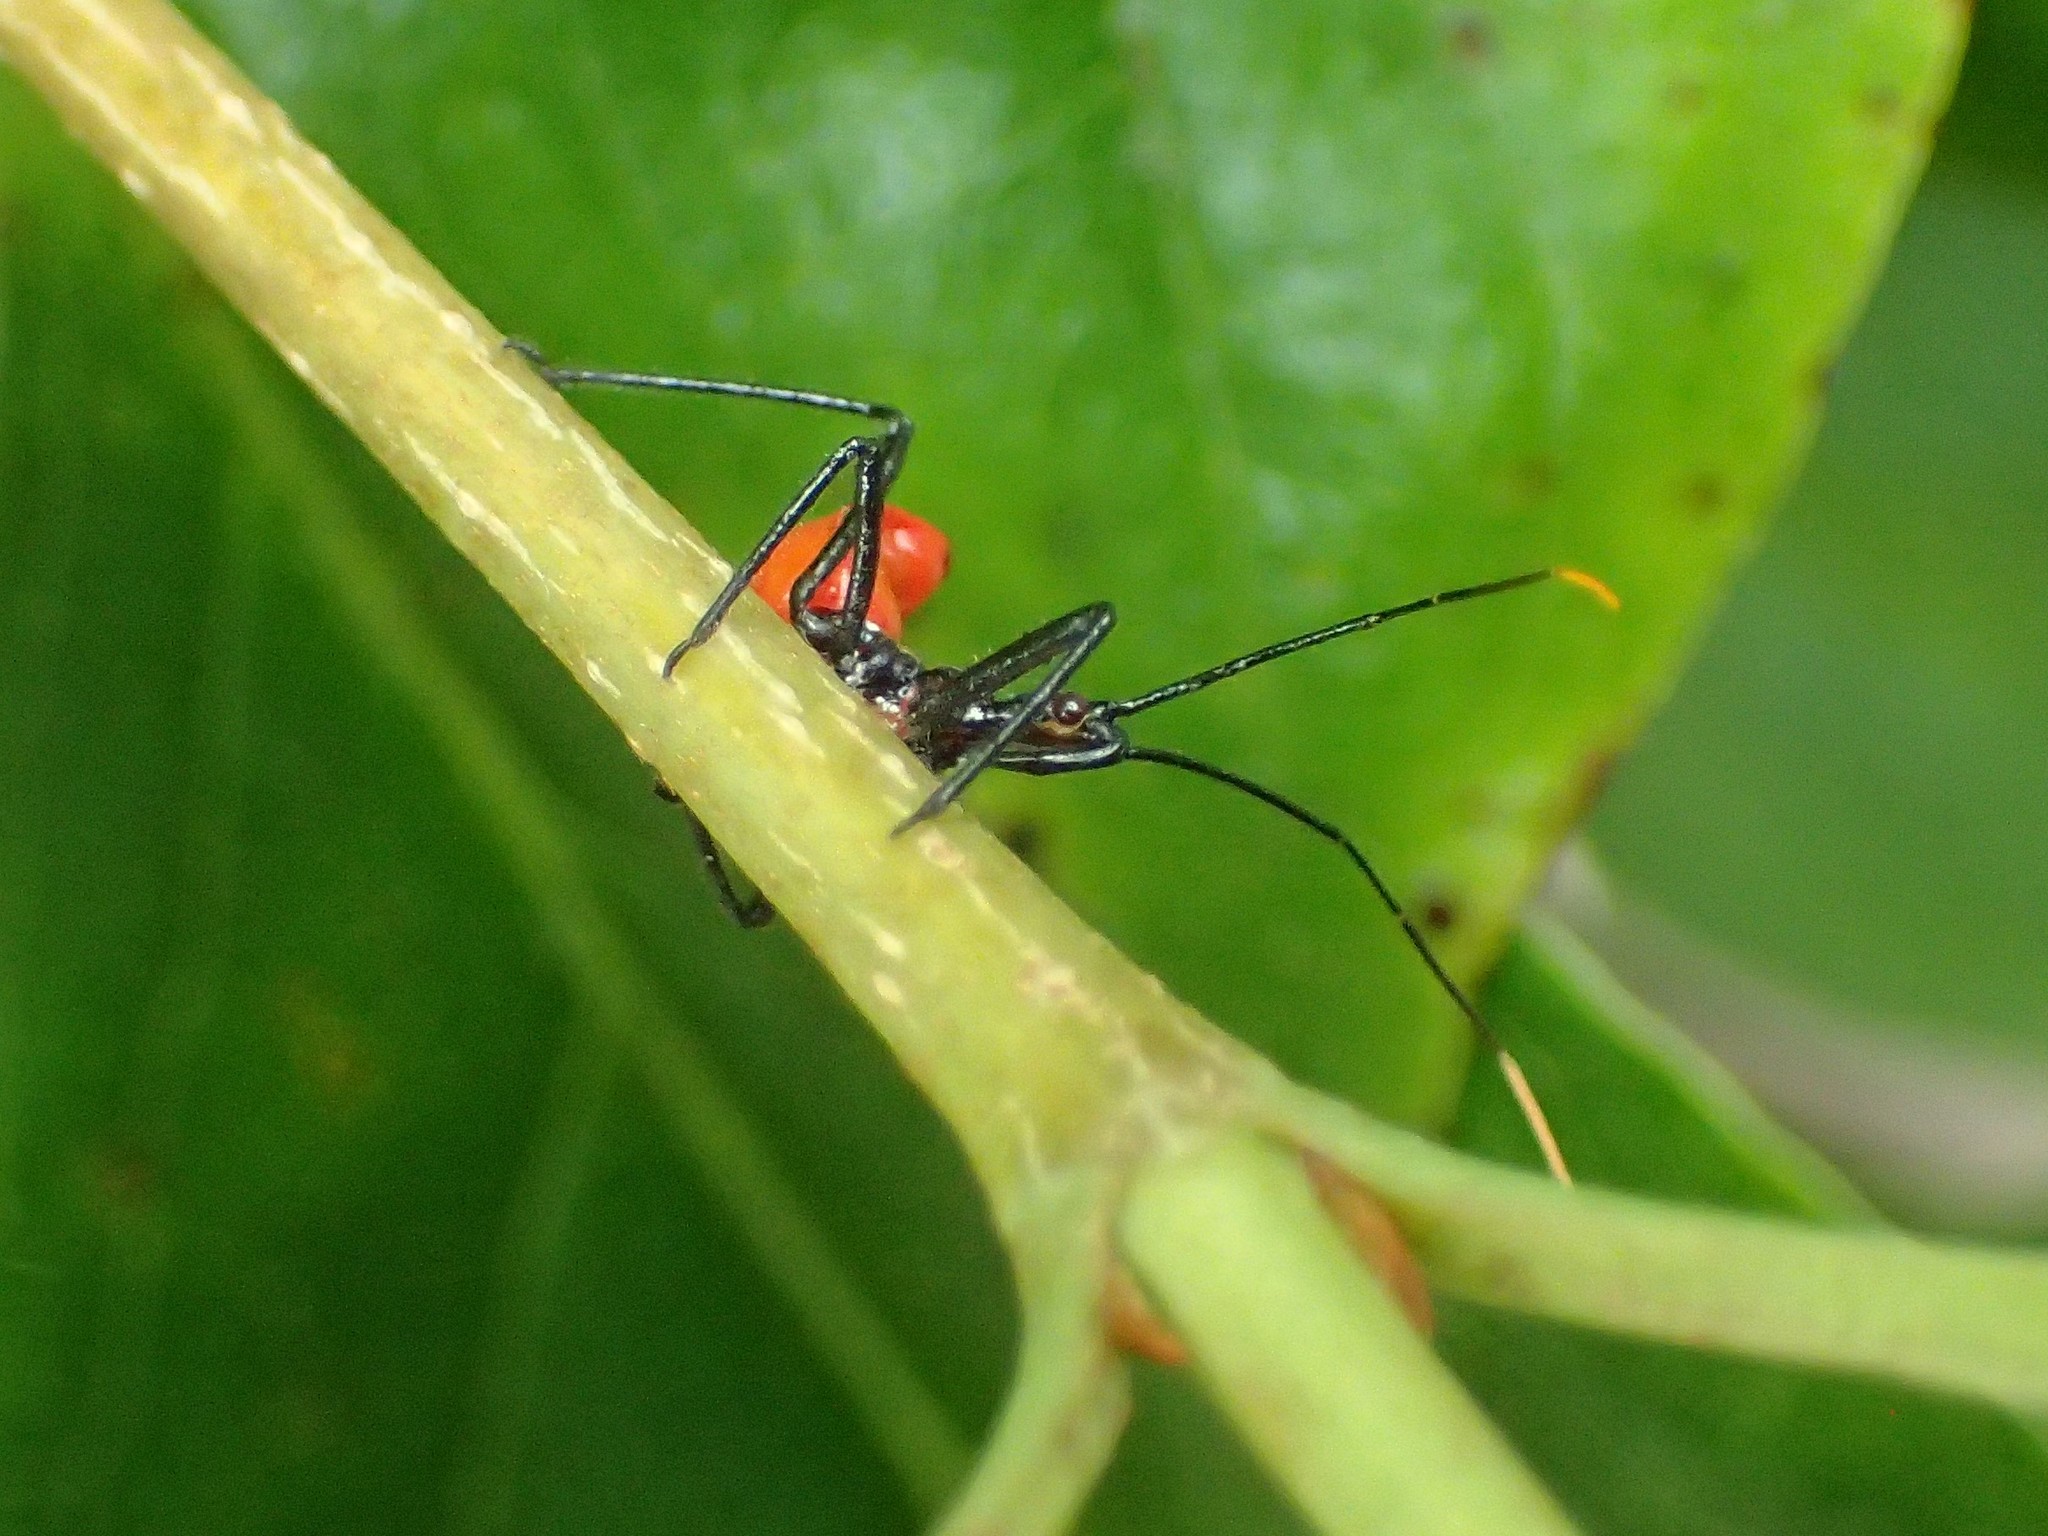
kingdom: Animalia
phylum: Arthropoda
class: Insecta
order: Hemiptera
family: Reduviidae
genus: Arilus
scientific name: Arilus cristatus
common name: North american wheel bug
